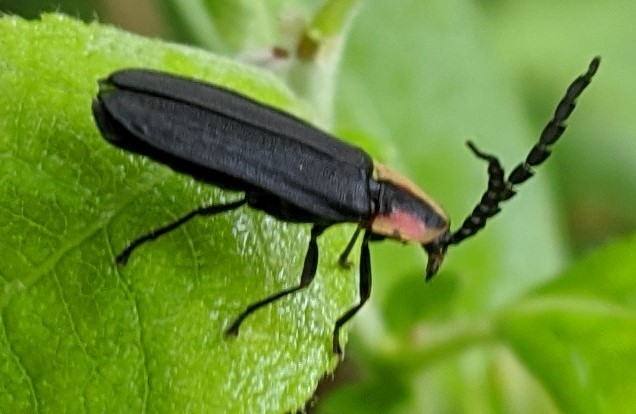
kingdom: Animalia
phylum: Arthropoda
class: Insecta
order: Coleoptera
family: Lampyridae
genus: Lucidota
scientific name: Lucidota atra
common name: Black firefly
